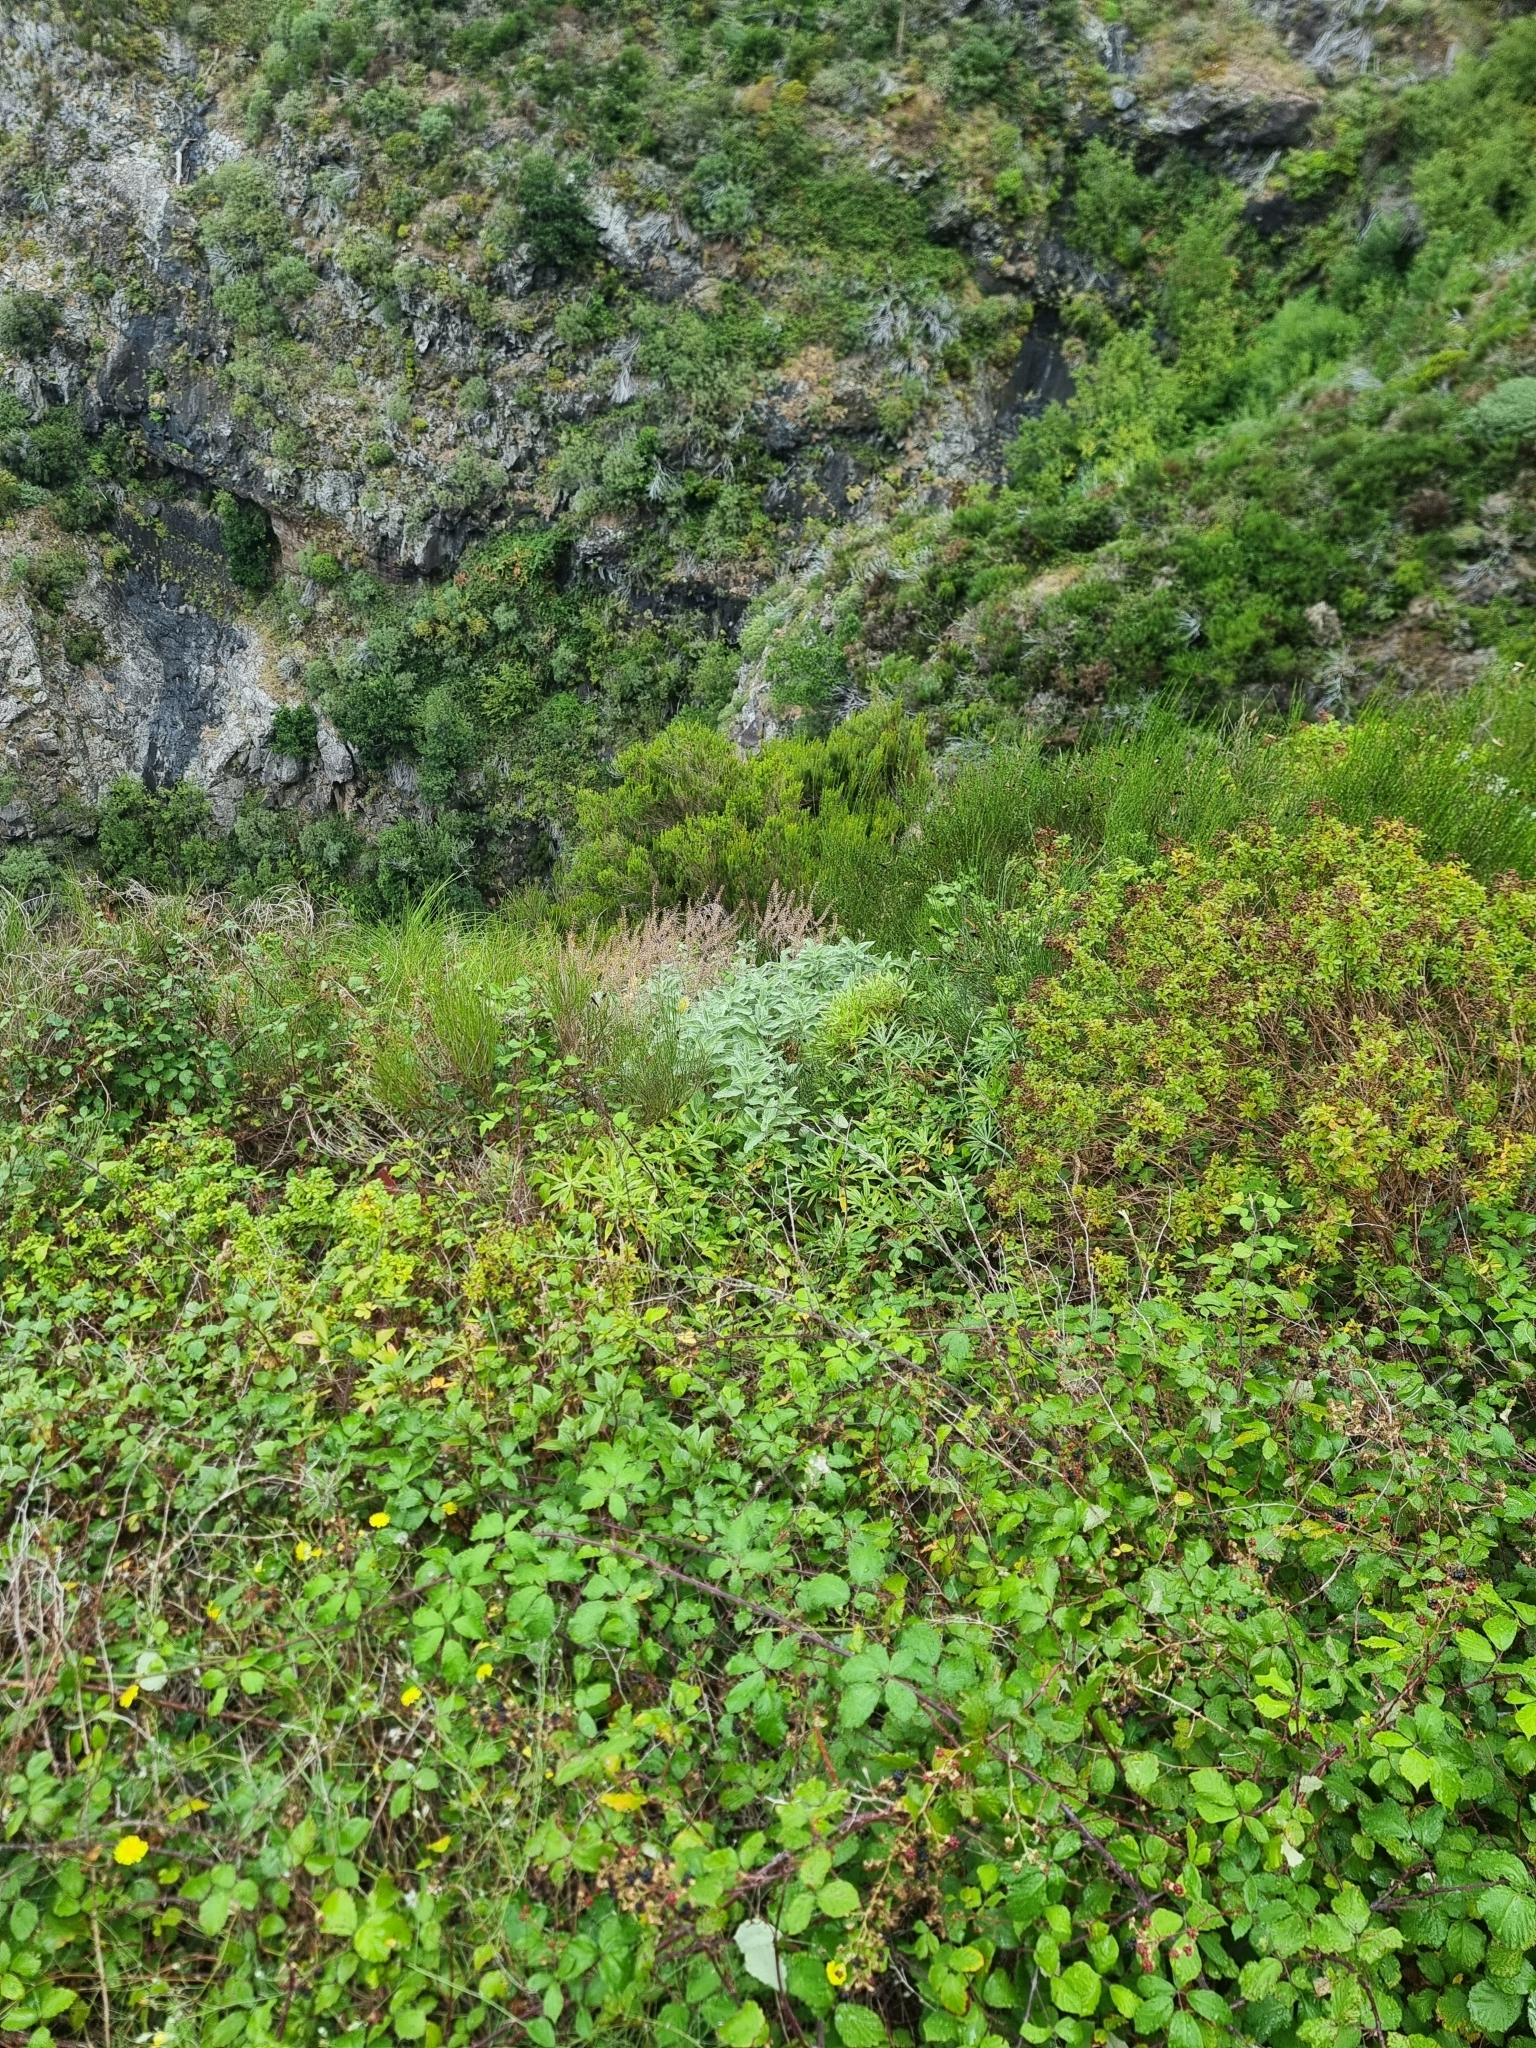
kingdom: Plantae
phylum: Tracheophyta
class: Magnoliopsida
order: Lamiales
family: Lamiaceae
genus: Teucrium
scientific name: Teucrium betonicum
